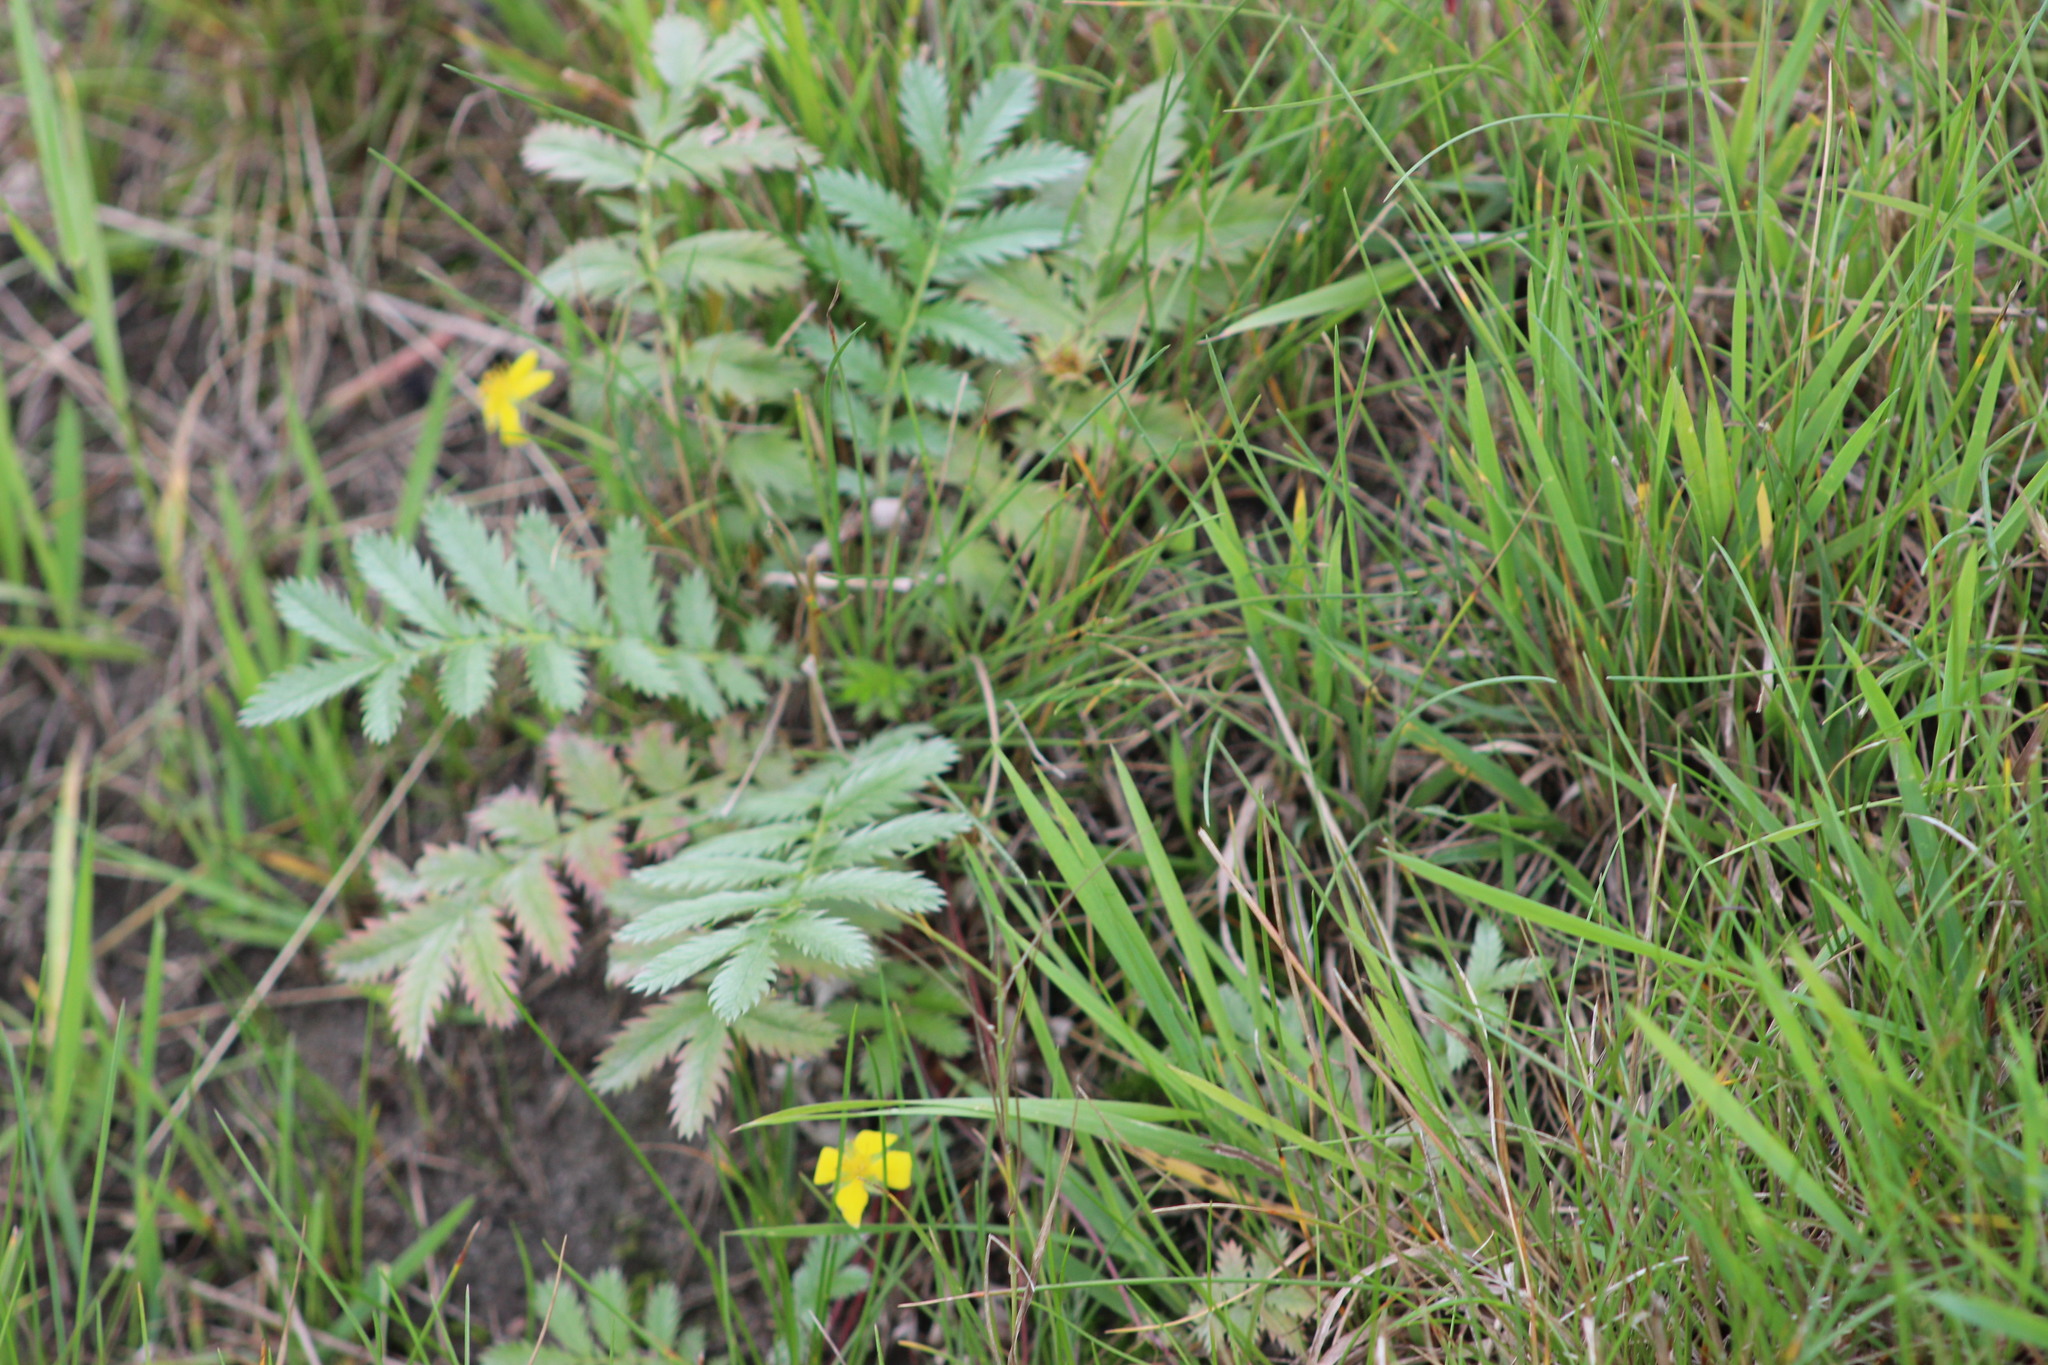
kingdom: Plantae
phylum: Tracheophyta
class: Magnoliopsida
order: Rosales
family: Rosaceae
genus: Argentina
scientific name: Argentina anserina
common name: Common silverweed
